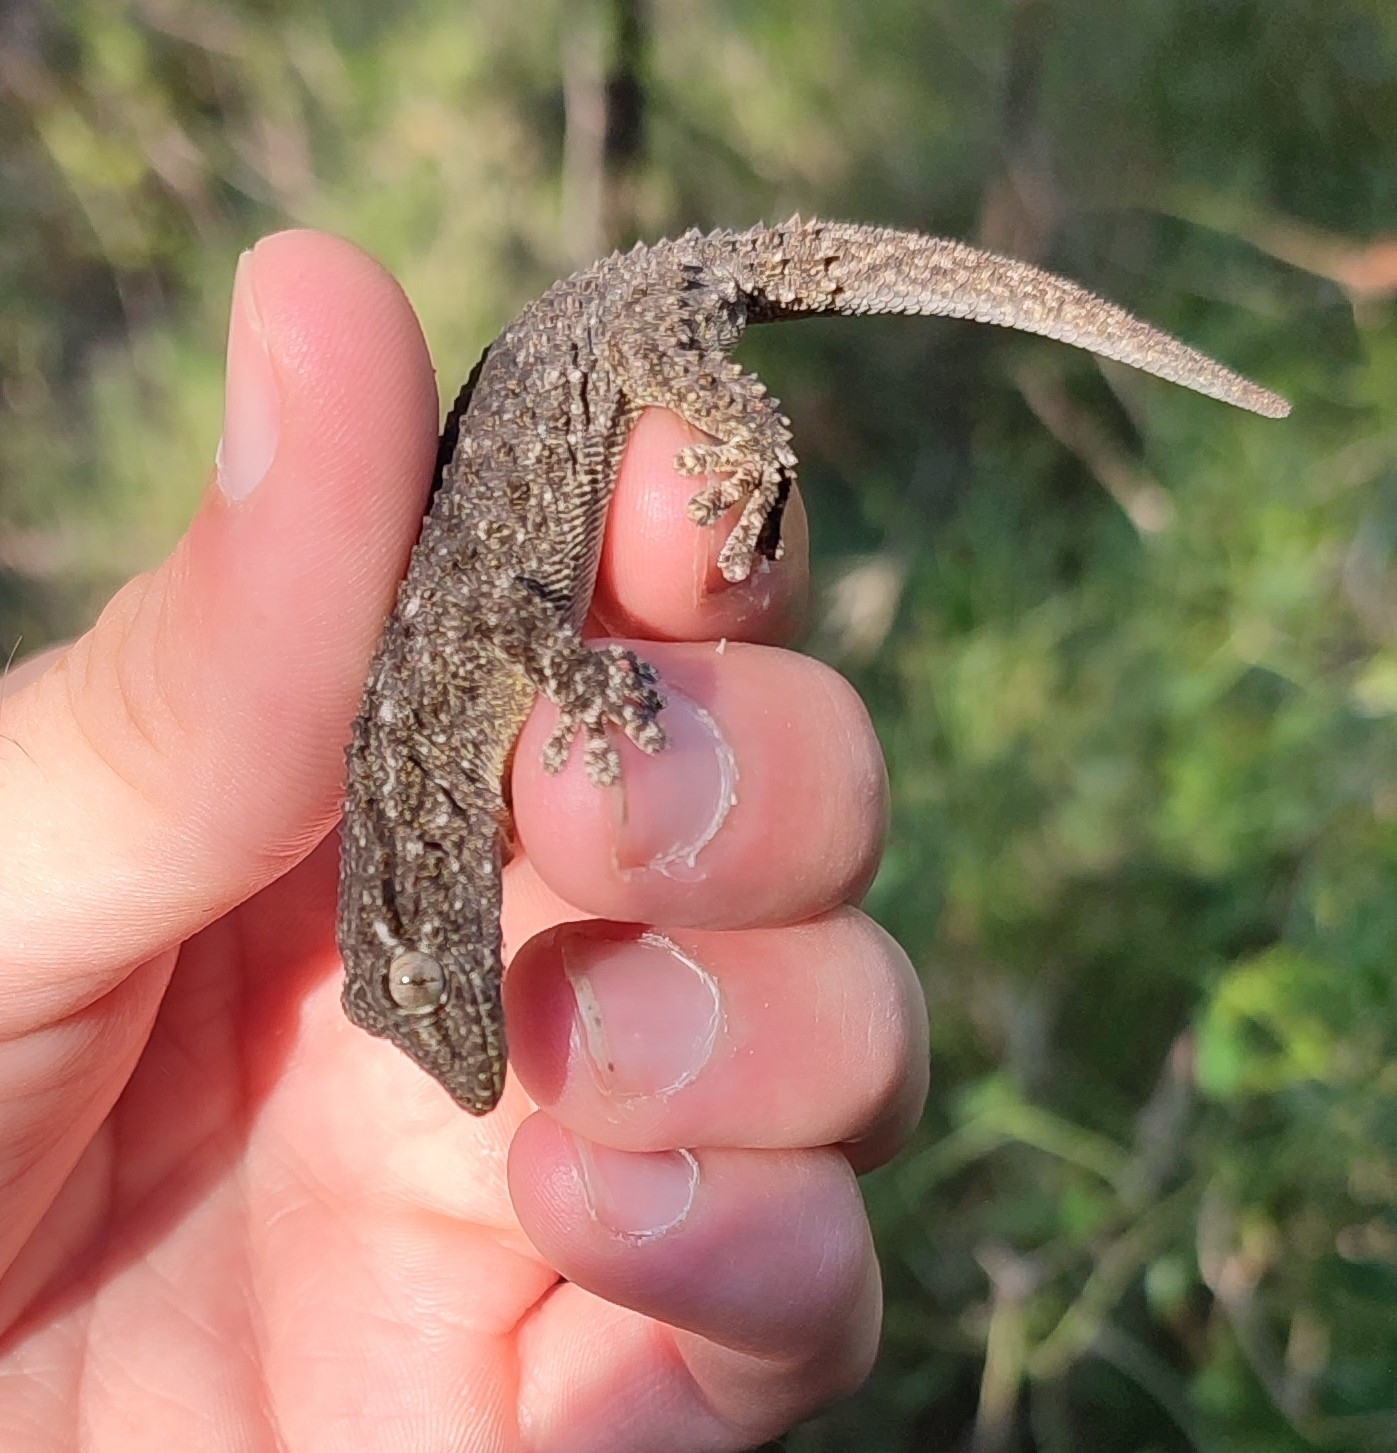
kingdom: Animalia
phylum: Chordata
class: Squamata
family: Phyllodactylidae
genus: Tarentola
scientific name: Tarentola mauritanica
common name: Moorish gecko
